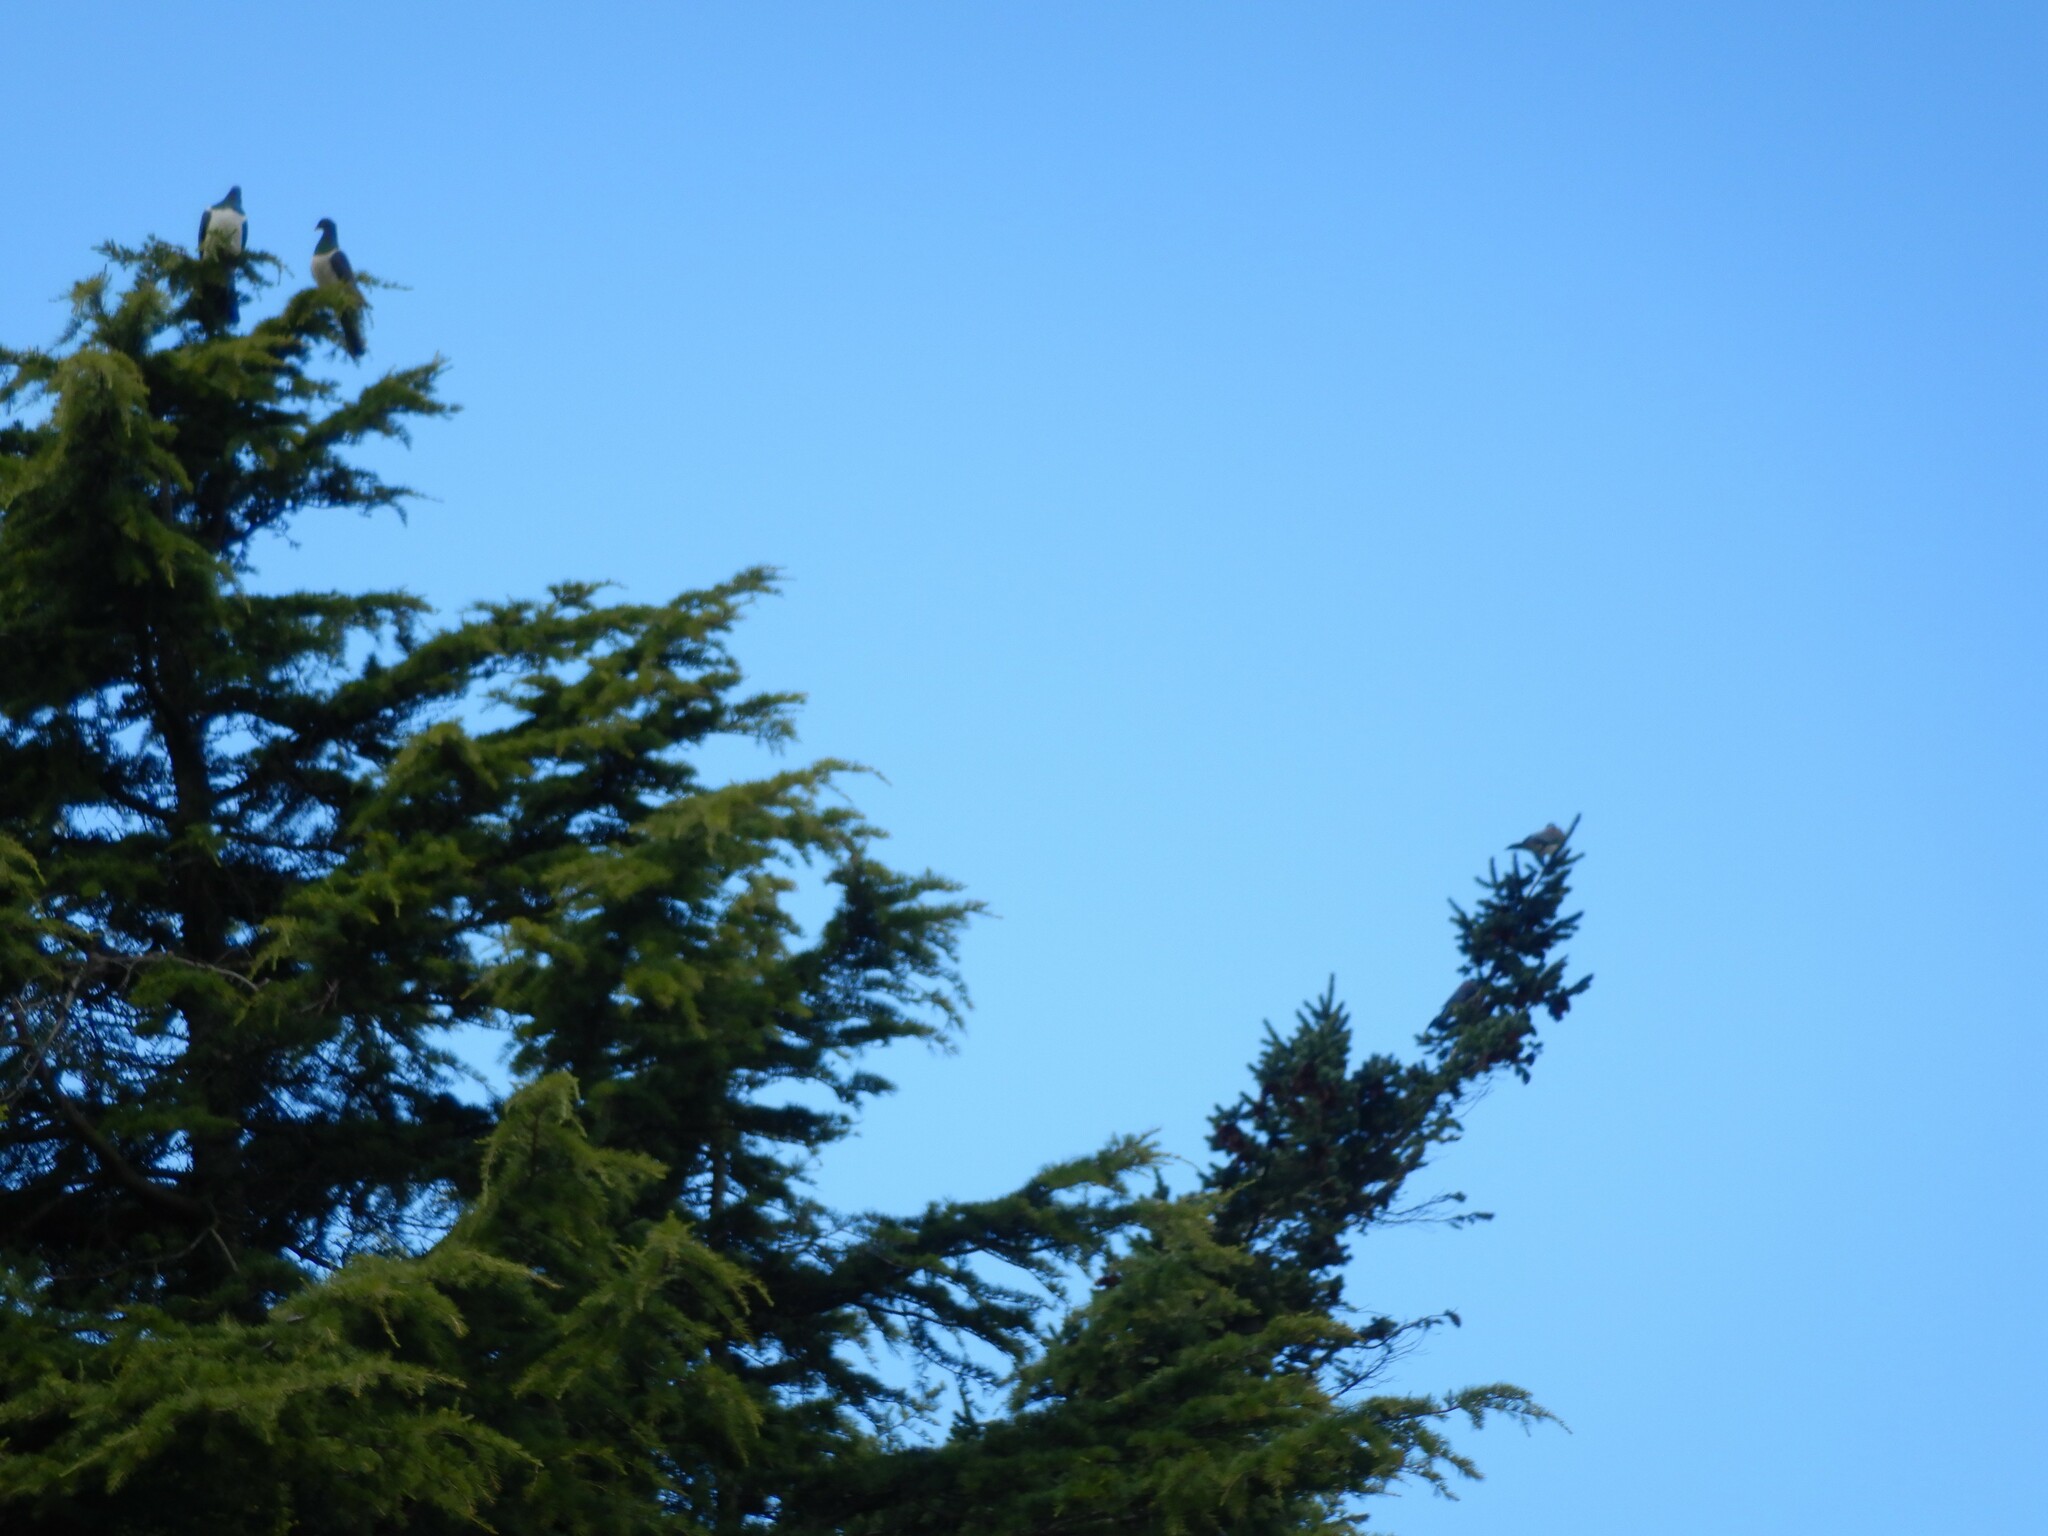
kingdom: Animalia
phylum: Chordata
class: Aves
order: Columbiformes
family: Columbidae
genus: Hemiphaga
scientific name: Hemiphaga novaeseelandiae
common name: New zealand pigeon
